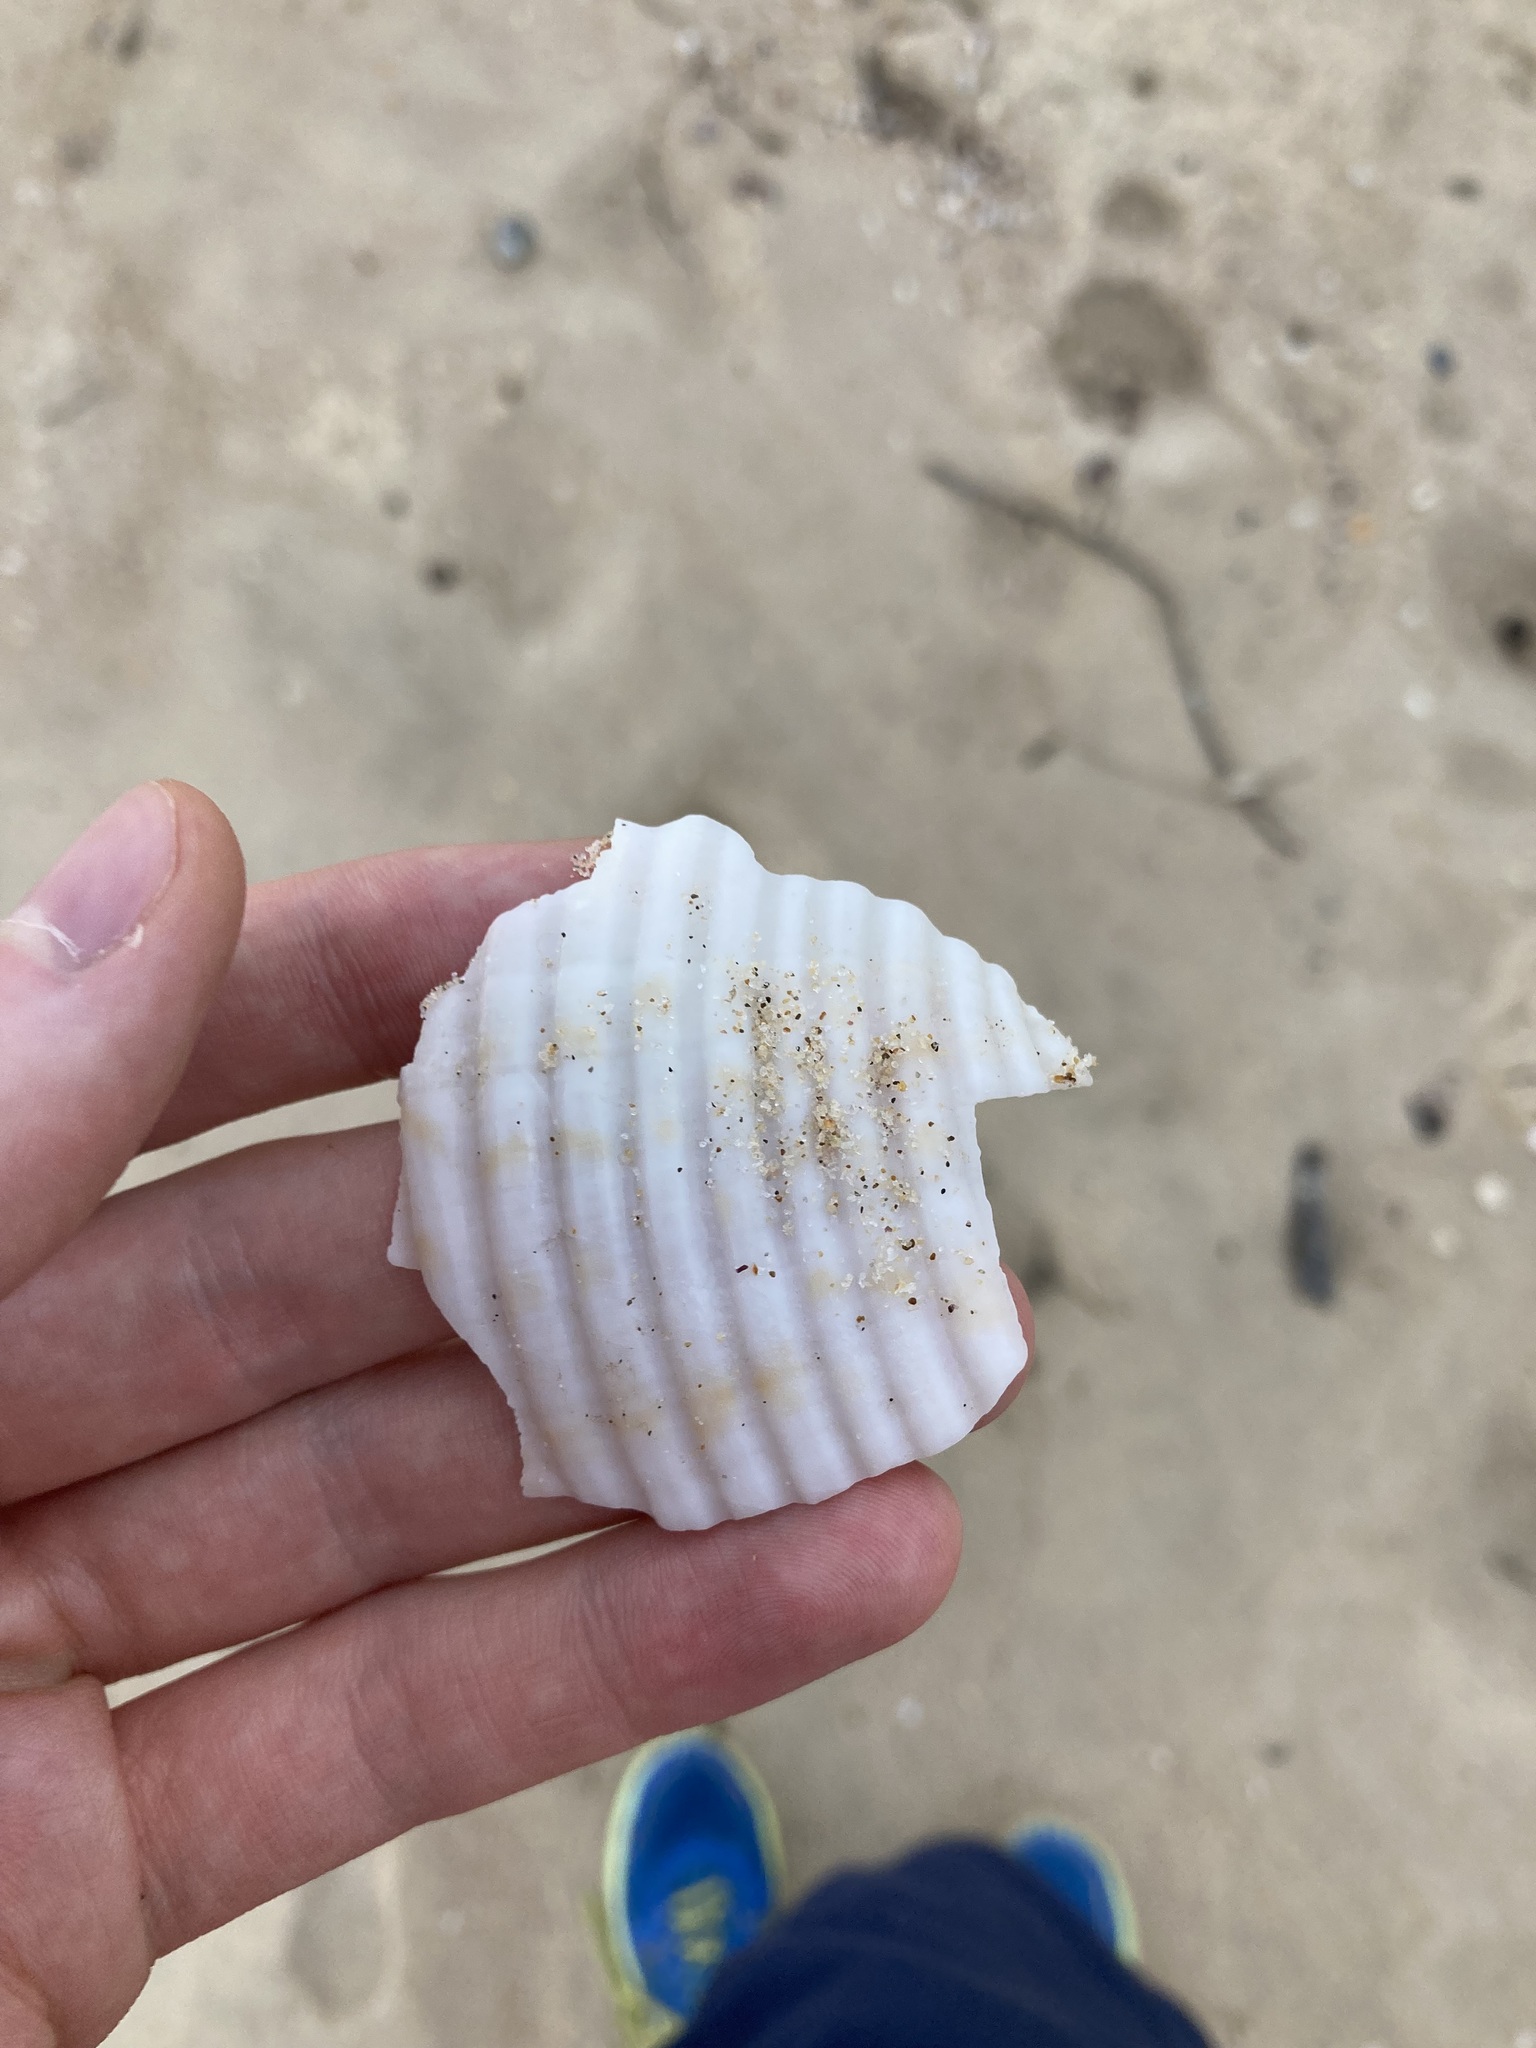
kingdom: Animalia
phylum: Mollusca
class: Gastropoda
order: Littorinimorpha
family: Tonnidae
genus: Tonna
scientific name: Tonna tankervillii
